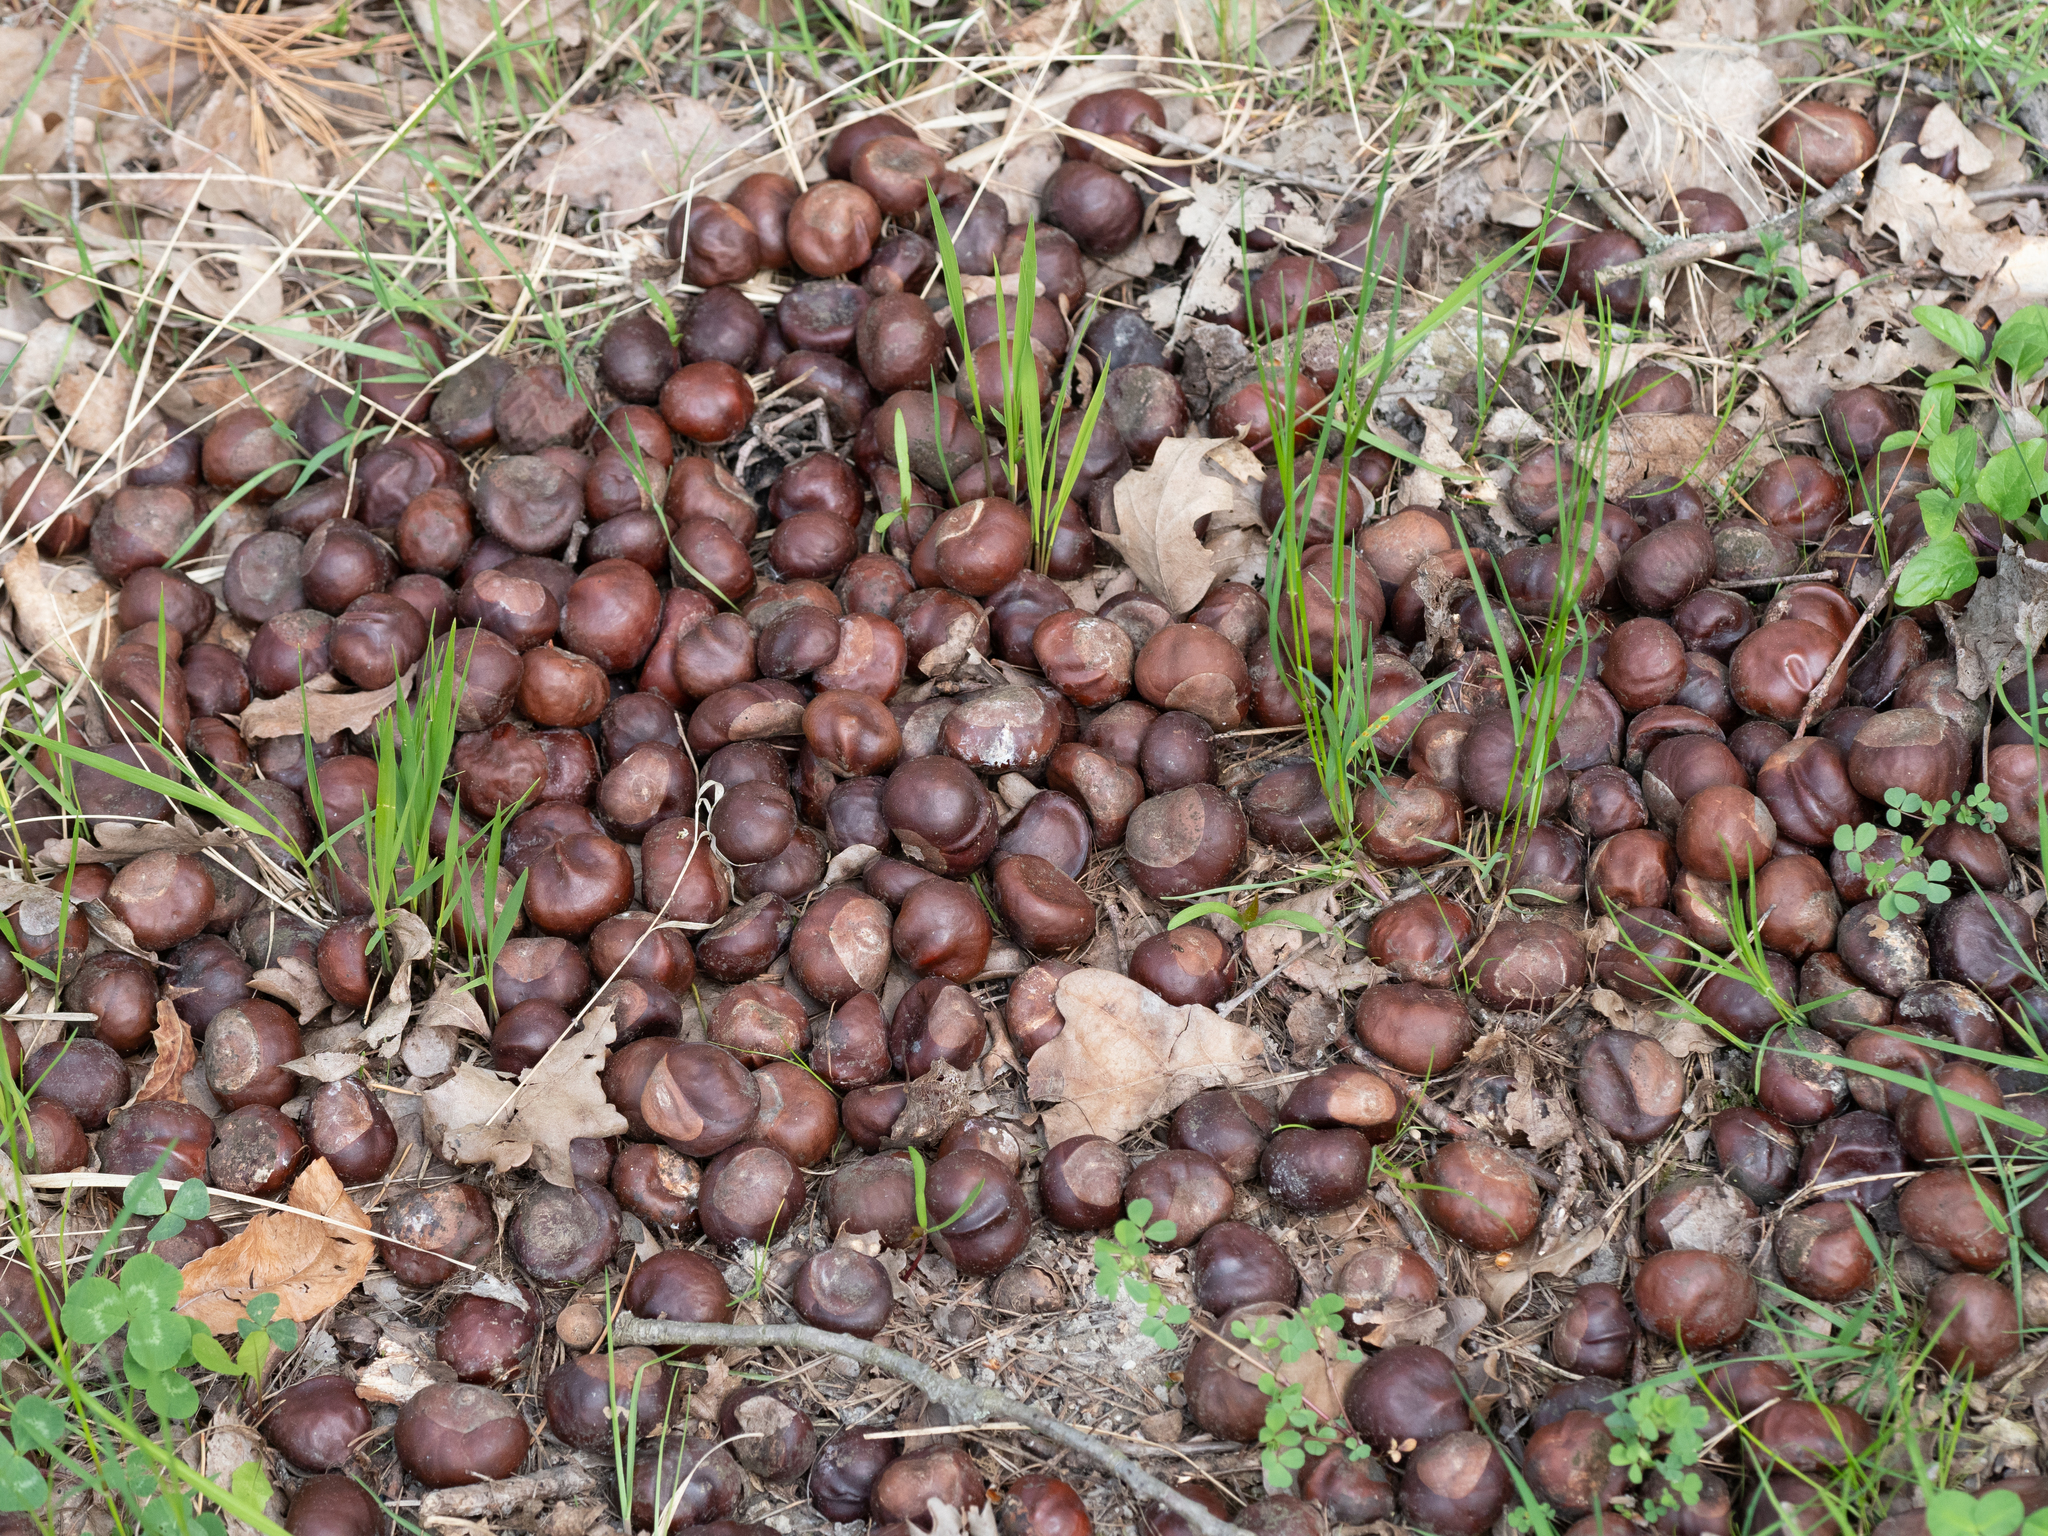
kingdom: Plantae
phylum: Tracheophyta
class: Magnoliopsida
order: Sapindales
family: Sapindaceae
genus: Aesculus
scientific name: Aesculus hippocastanum
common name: Horse-chestnut
